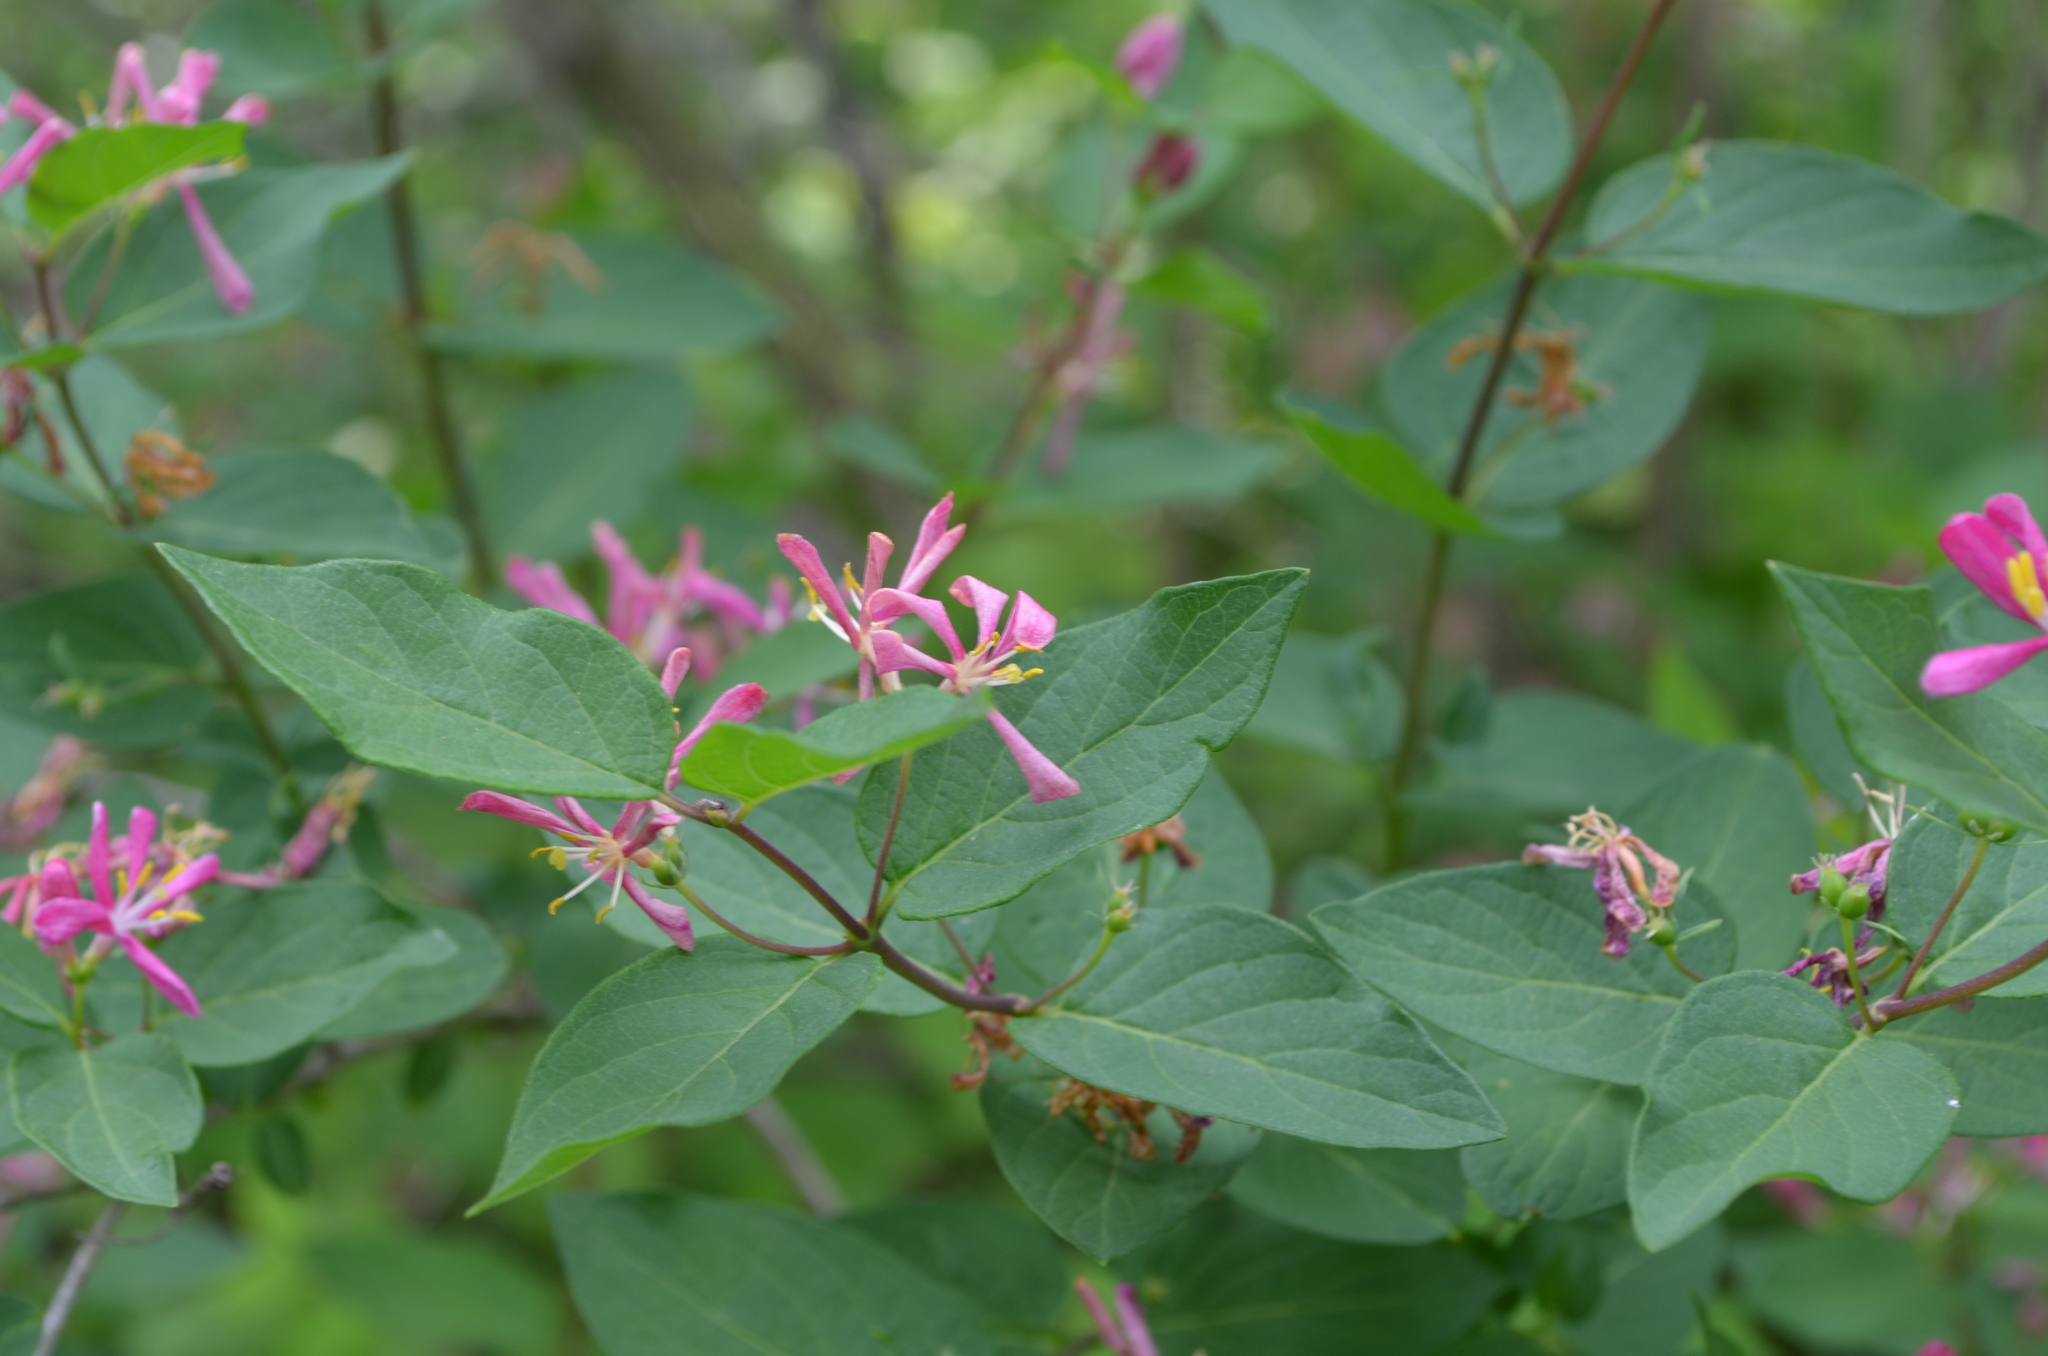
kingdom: Plantae
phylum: Tracheophyta
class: Magnoliopsida
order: Dipsacales
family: Caprifoliaceae
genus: Lonicera
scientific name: Lonicera tatarica
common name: Tatarian honeysuckle
